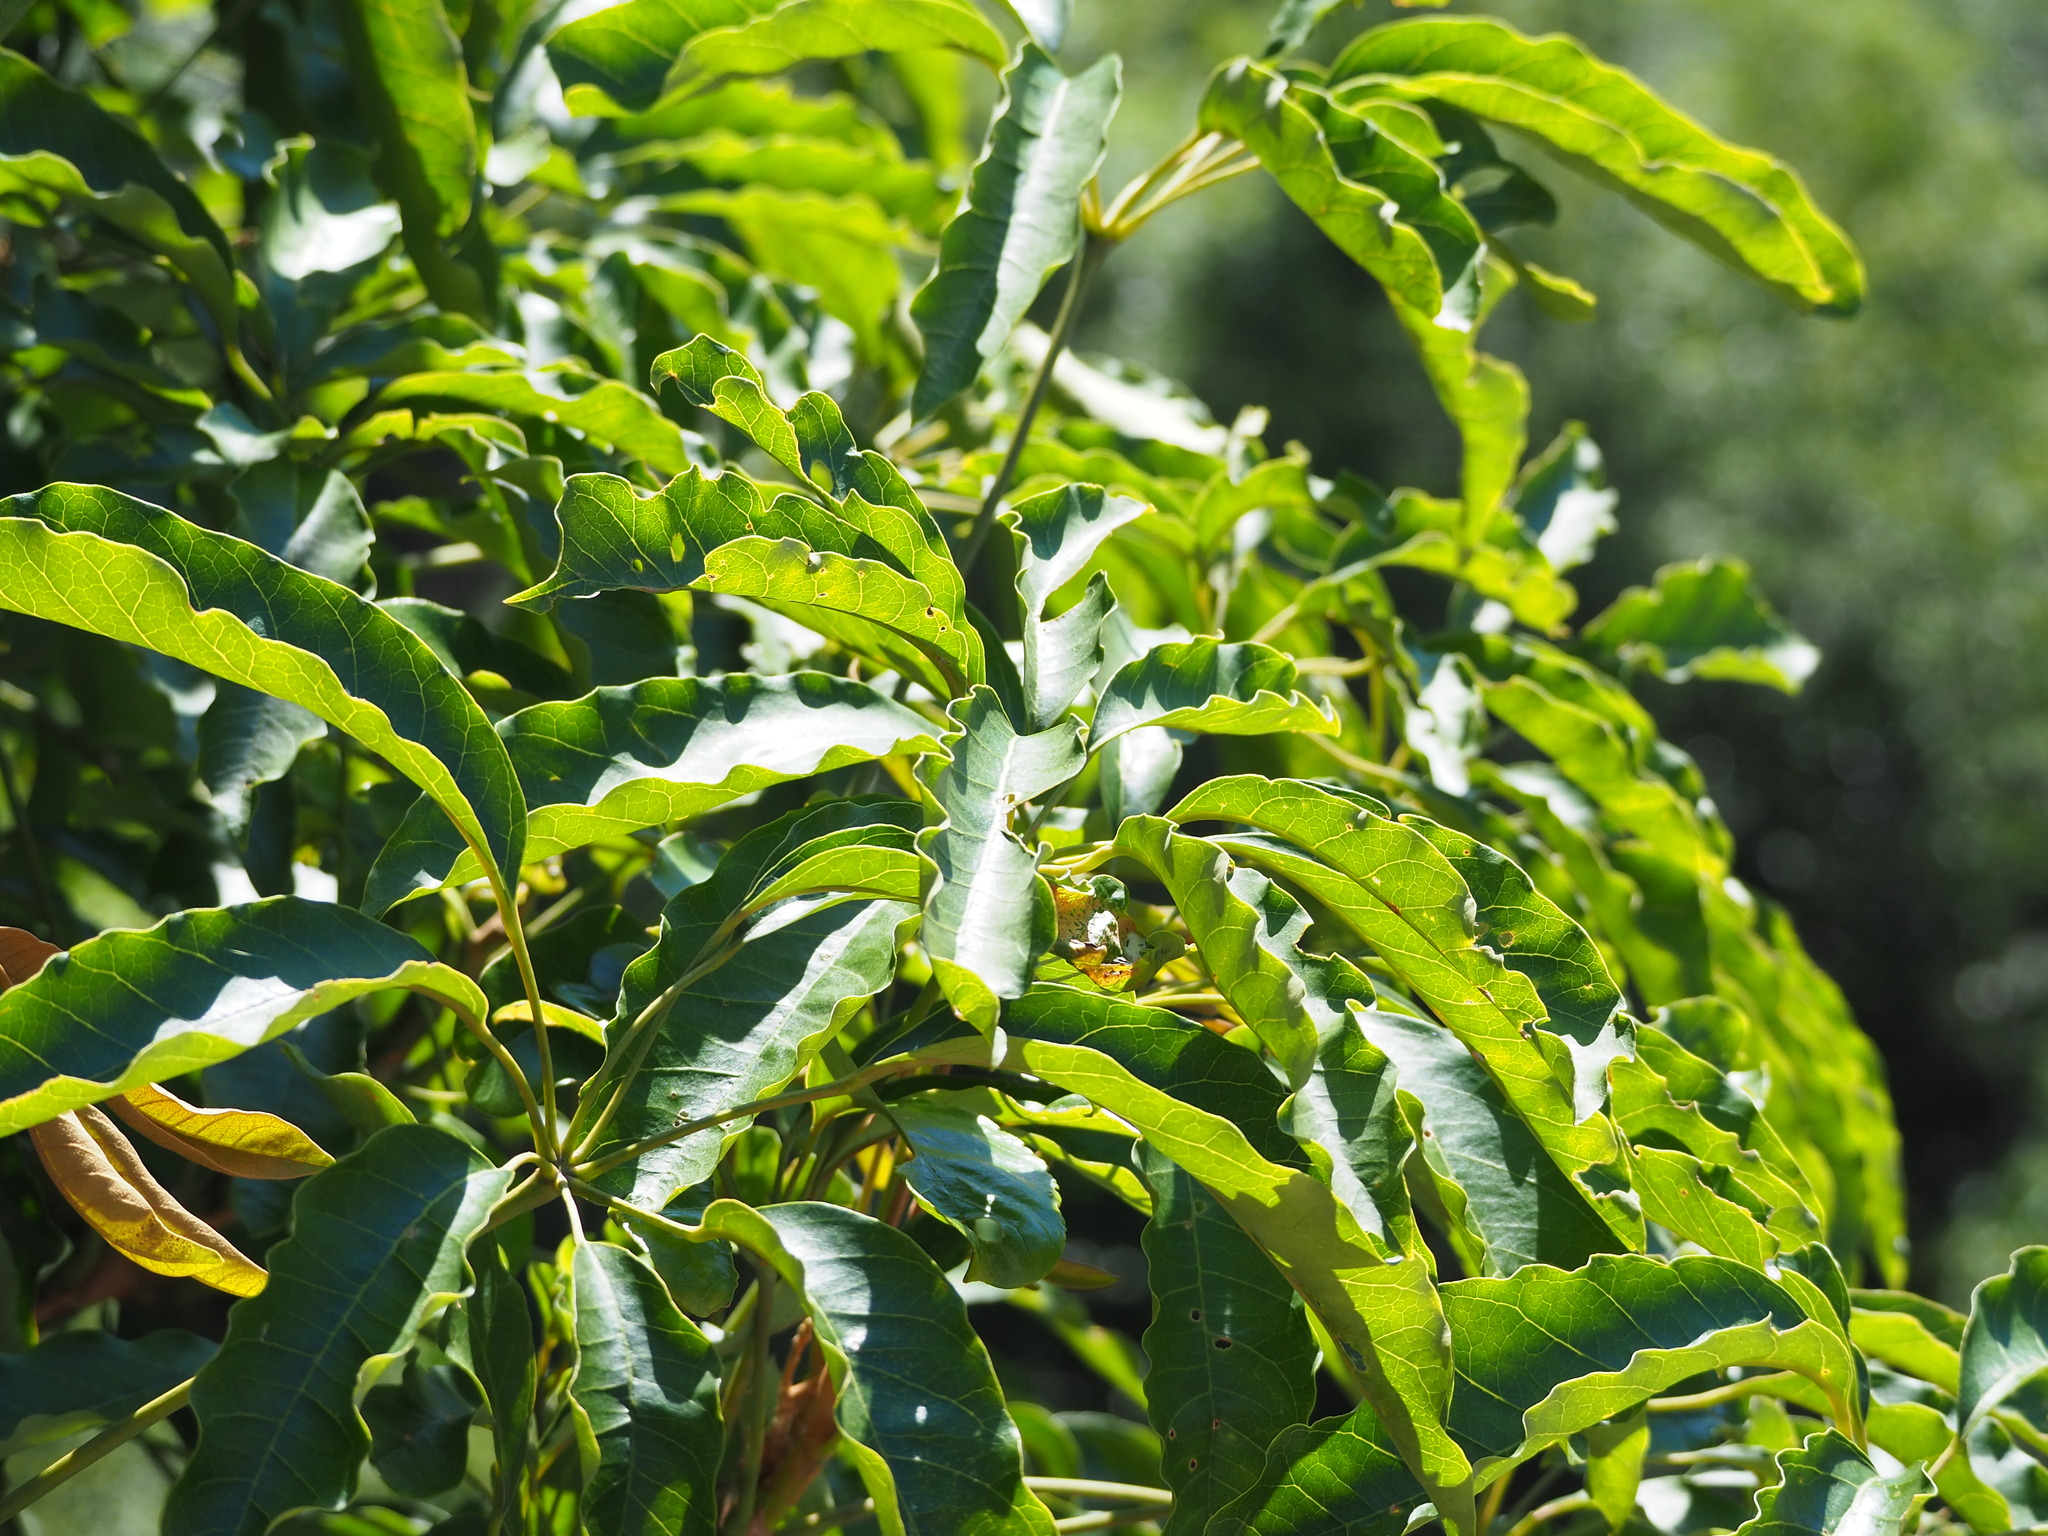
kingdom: Plantae
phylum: Tracheophyta
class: Magnoliopsida
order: Apiales
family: Araliaceae
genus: Heptapleurum
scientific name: Heptapleurum heptaphyllum
